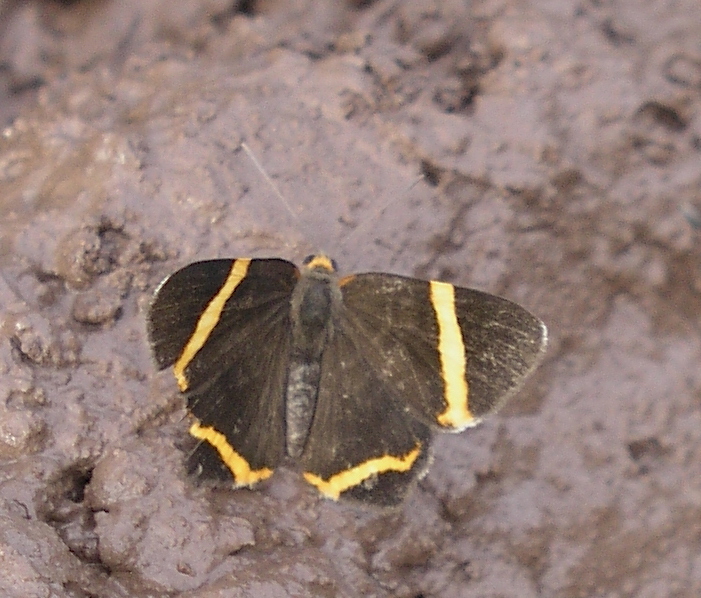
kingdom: Animalia
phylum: Arthropoda
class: Insecta
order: Lepidoptera
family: Riodinidae
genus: Riodina
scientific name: Riodina lysippoides
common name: Little dancer metalmark
